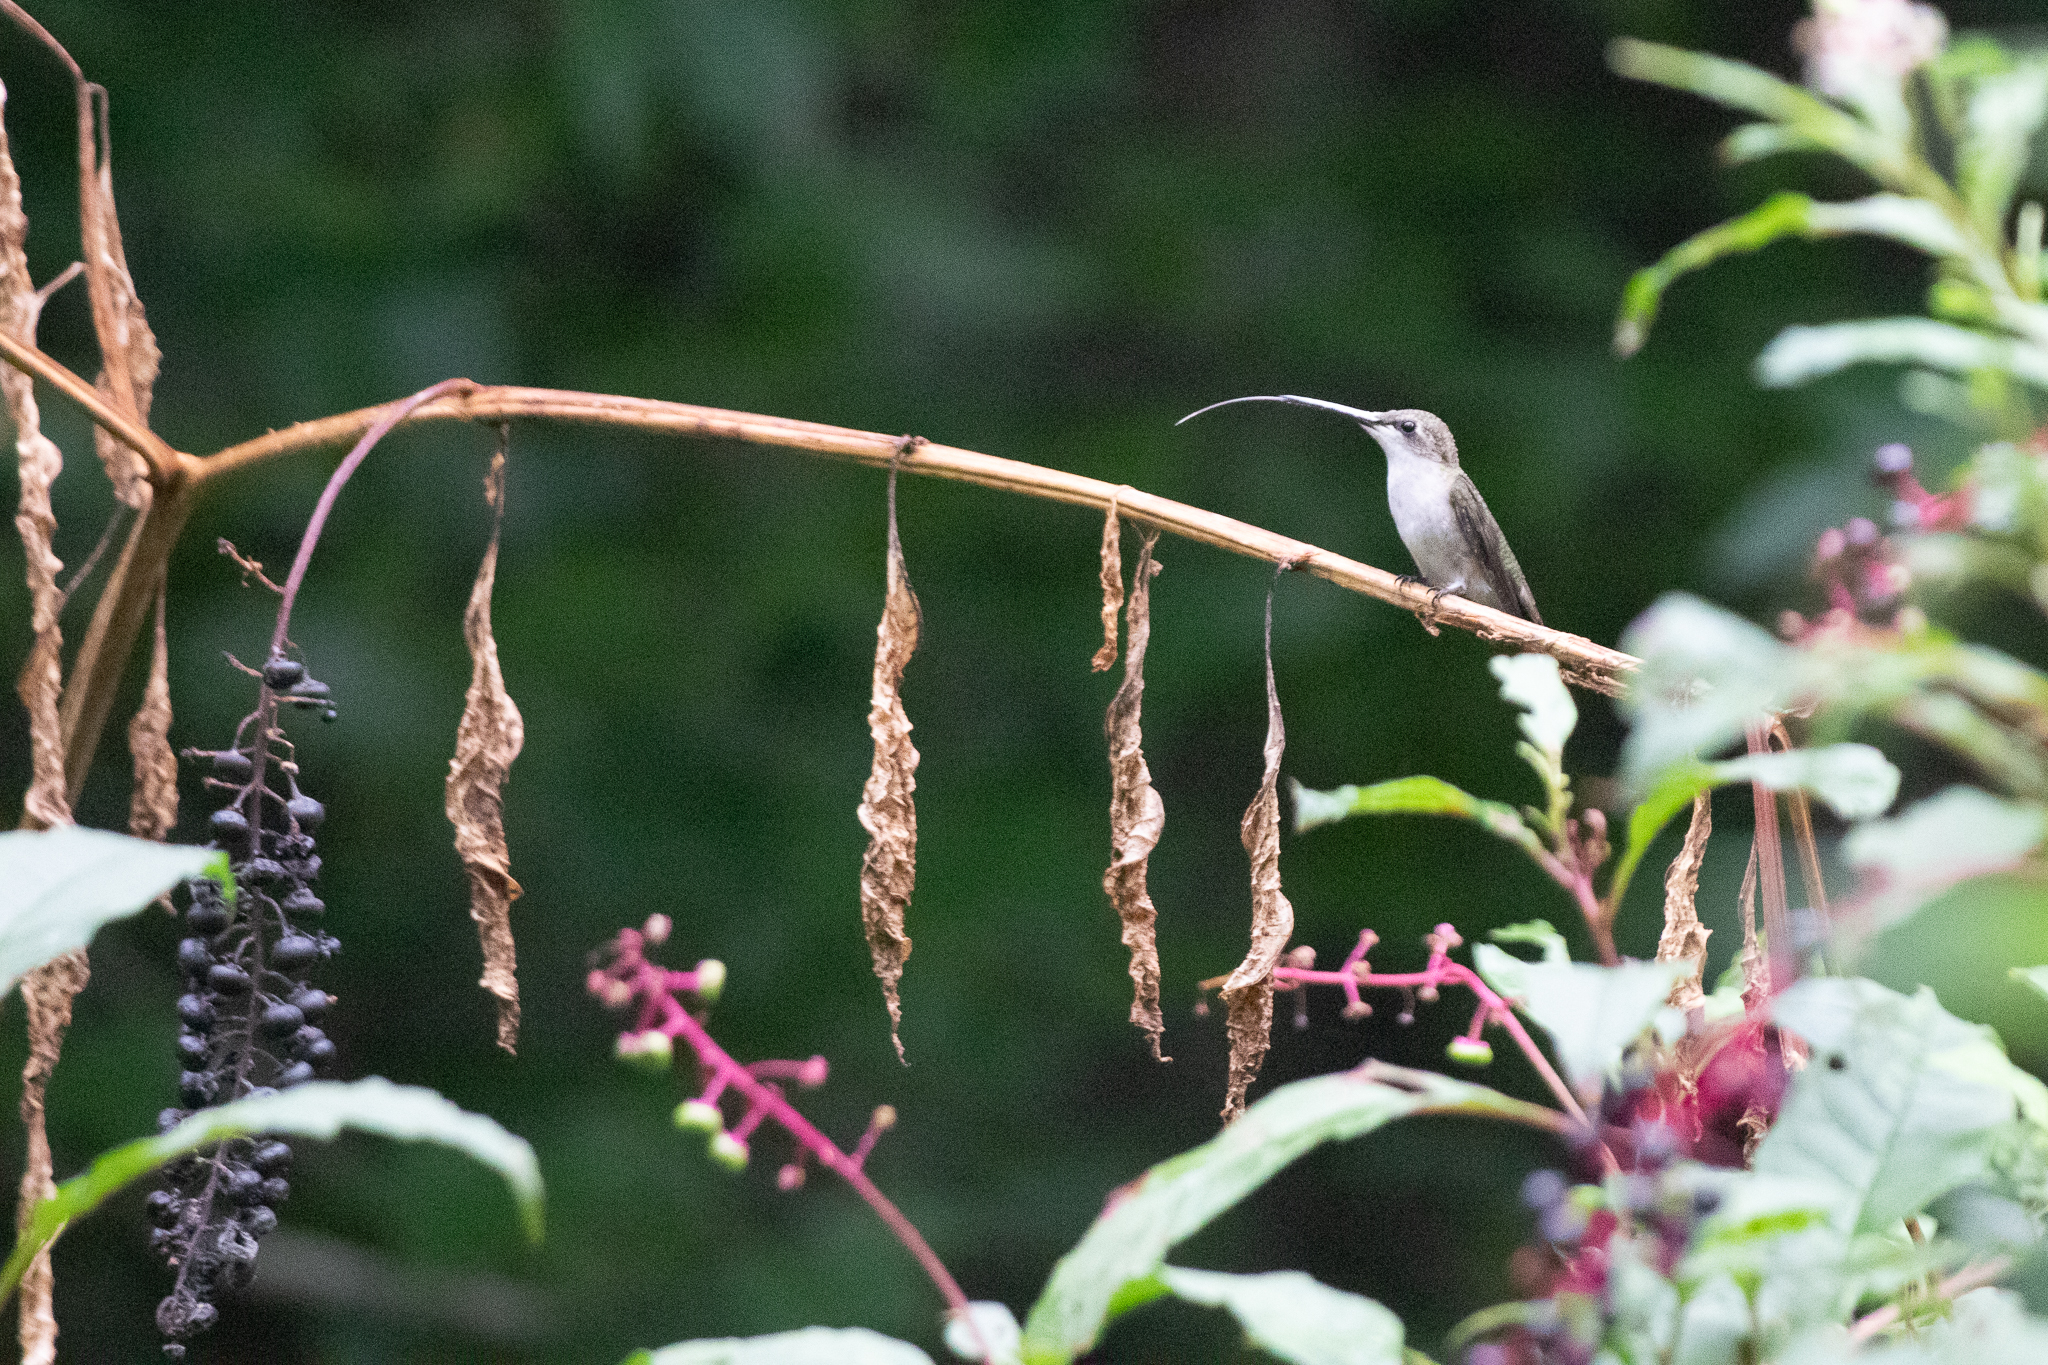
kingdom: Animalia
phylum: Chordata
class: Aves
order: Apodiformes
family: Trochilidae
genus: Archilochus
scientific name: Archilochus colubris
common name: Ruby-throated hummingbird
